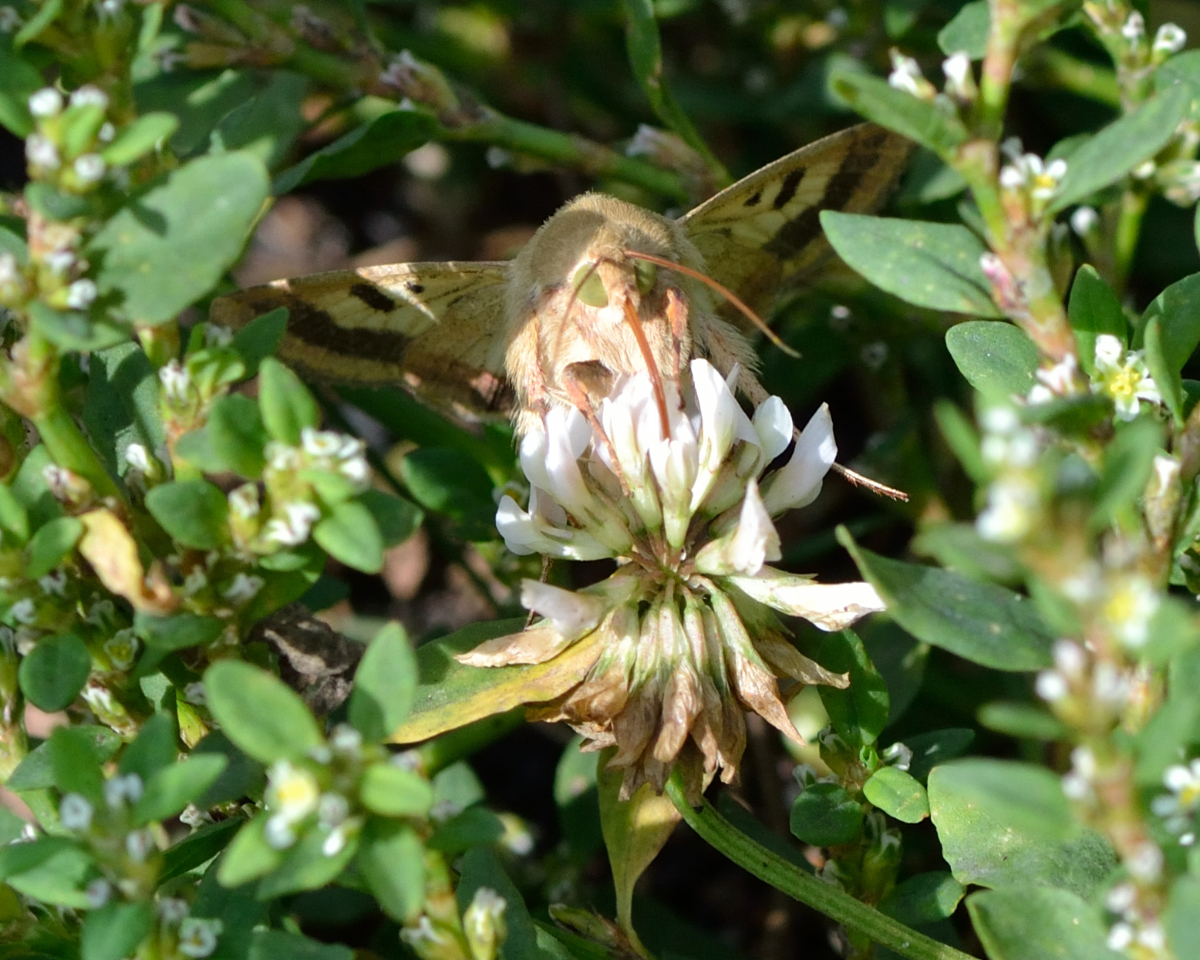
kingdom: Animalia
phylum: Arthropoda
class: Insecta
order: Lepidoptera
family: Noctuidae
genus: Helicoverpa
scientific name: Helicoverpa armigera
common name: Cotton bollworm
